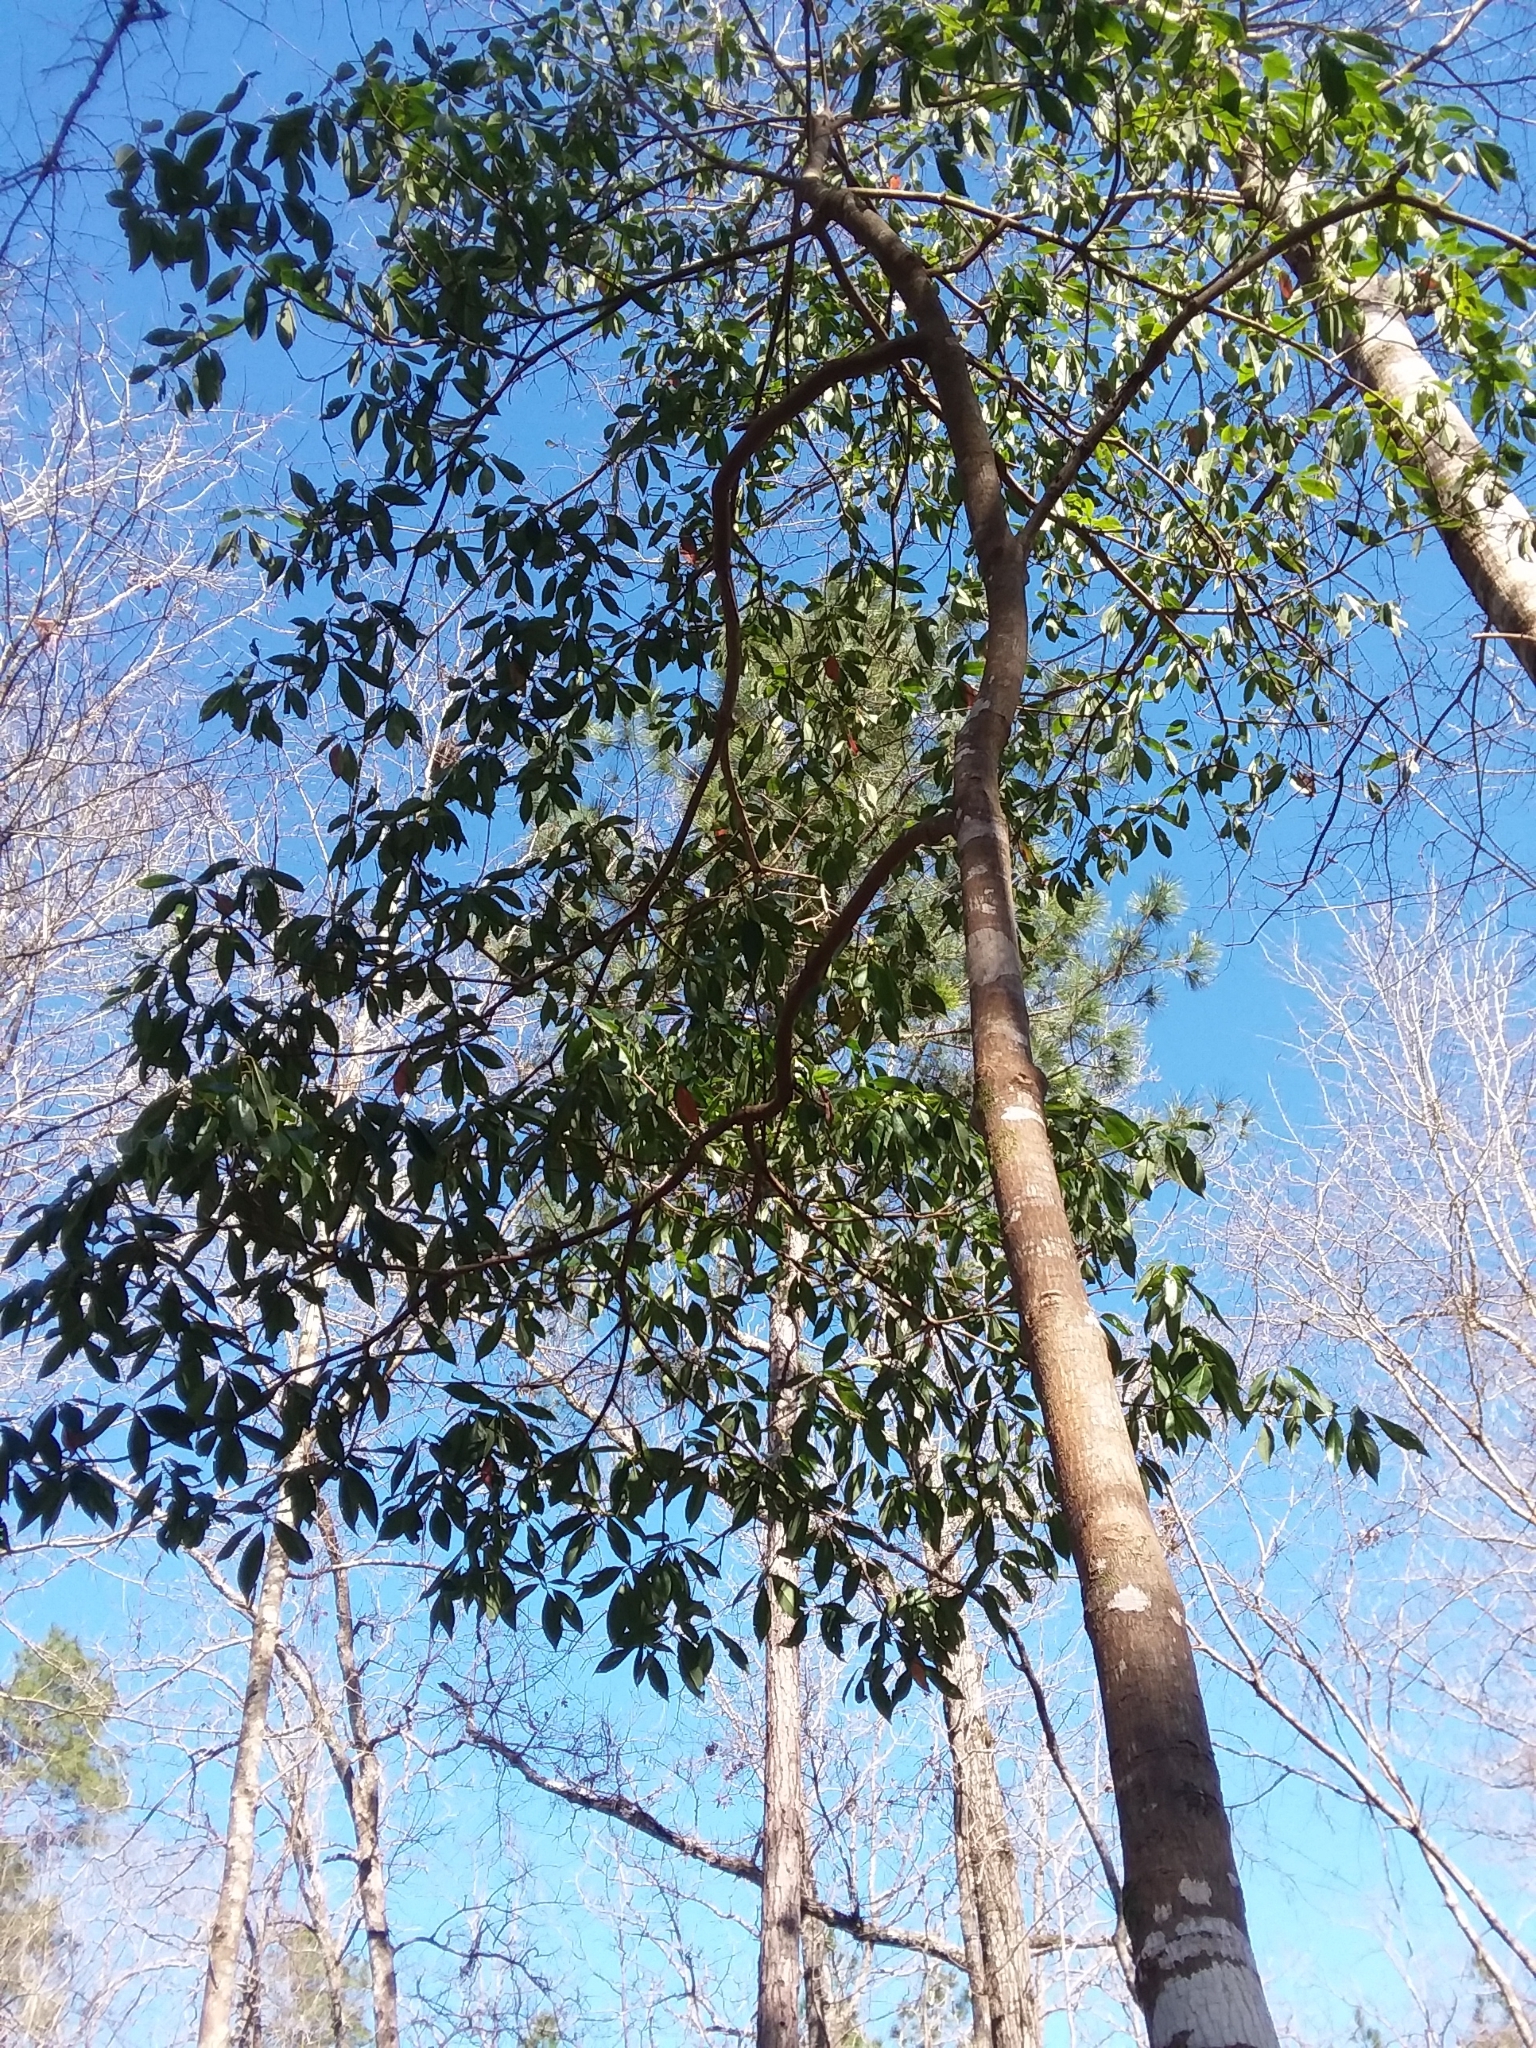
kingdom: Plantae
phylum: Tracheophyta
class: Magnoliopsida
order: Ericales
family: Symplocaceae
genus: Symplocos
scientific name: Symplocos tinctoria
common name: Horse-sugar
